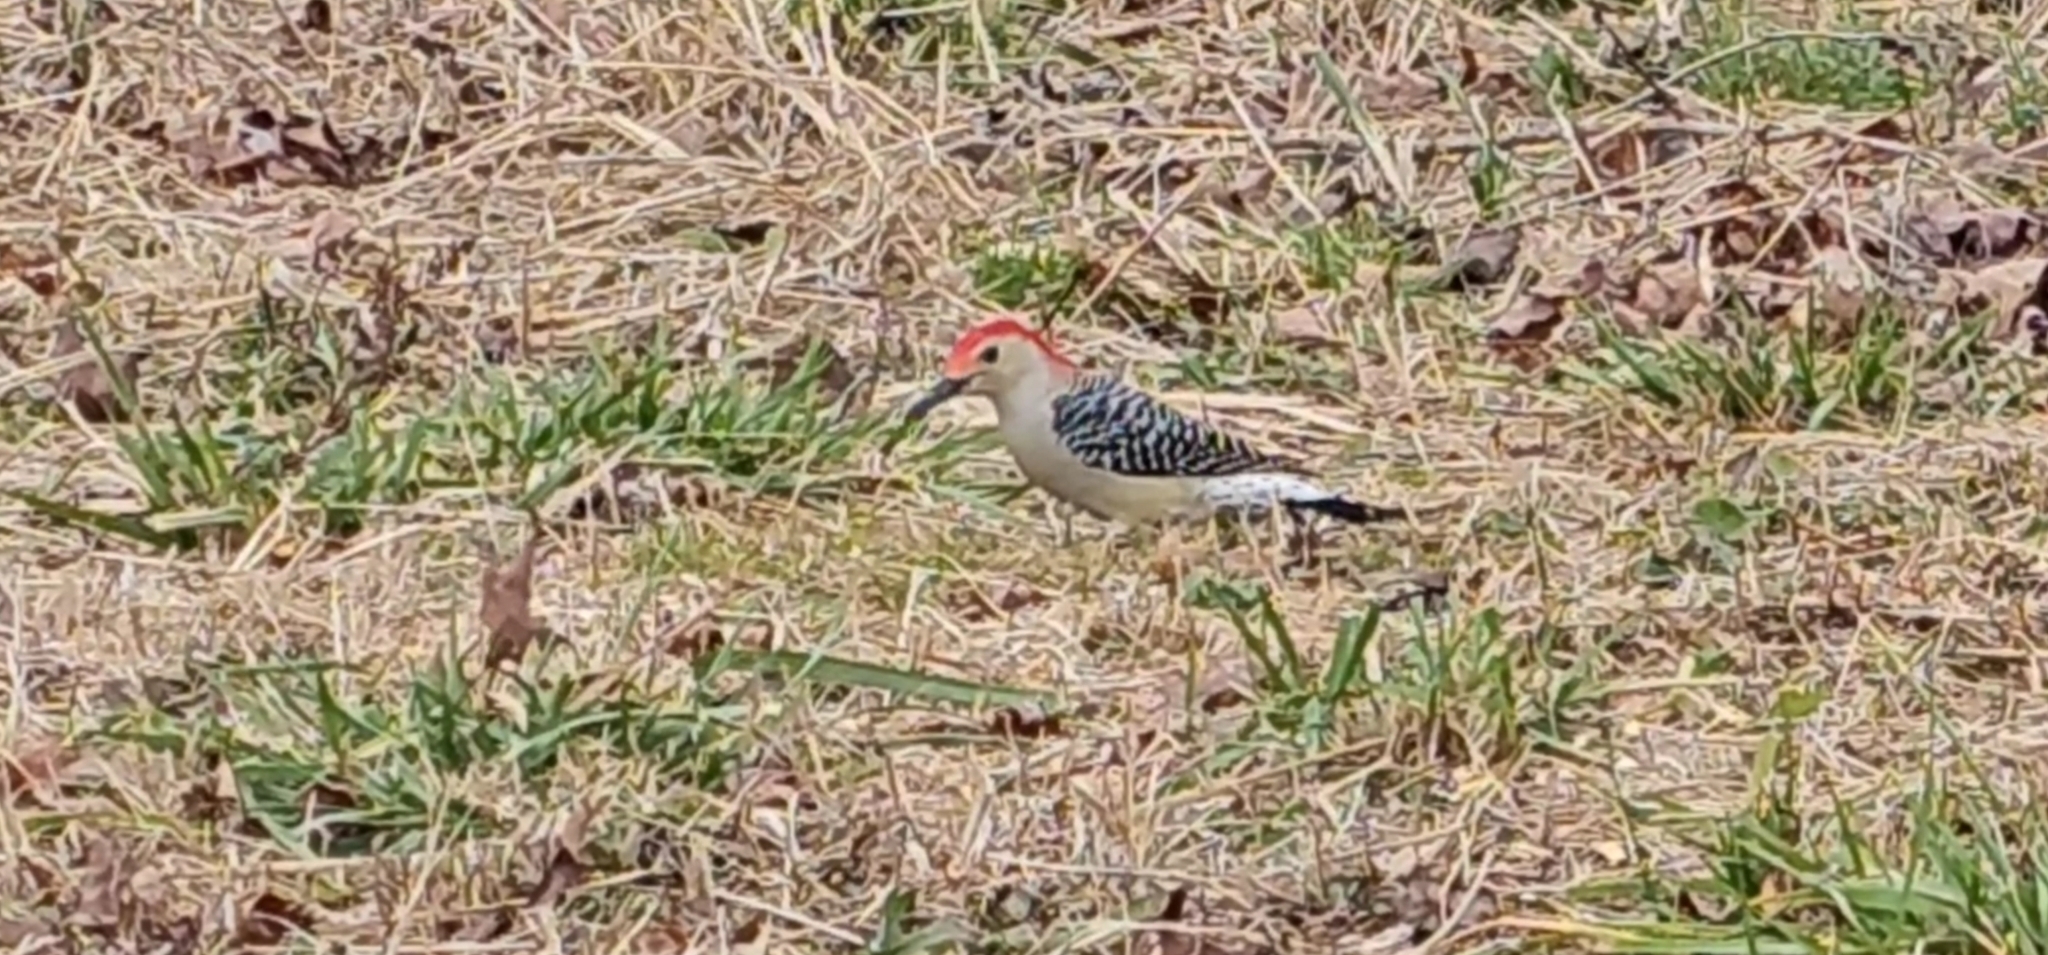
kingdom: Animalia
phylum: Chordata
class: Aves
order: Piciformes
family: Picidae
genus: Melanerpes
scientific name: Melanerpes carolinus
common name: Red-bellied woodpecker
